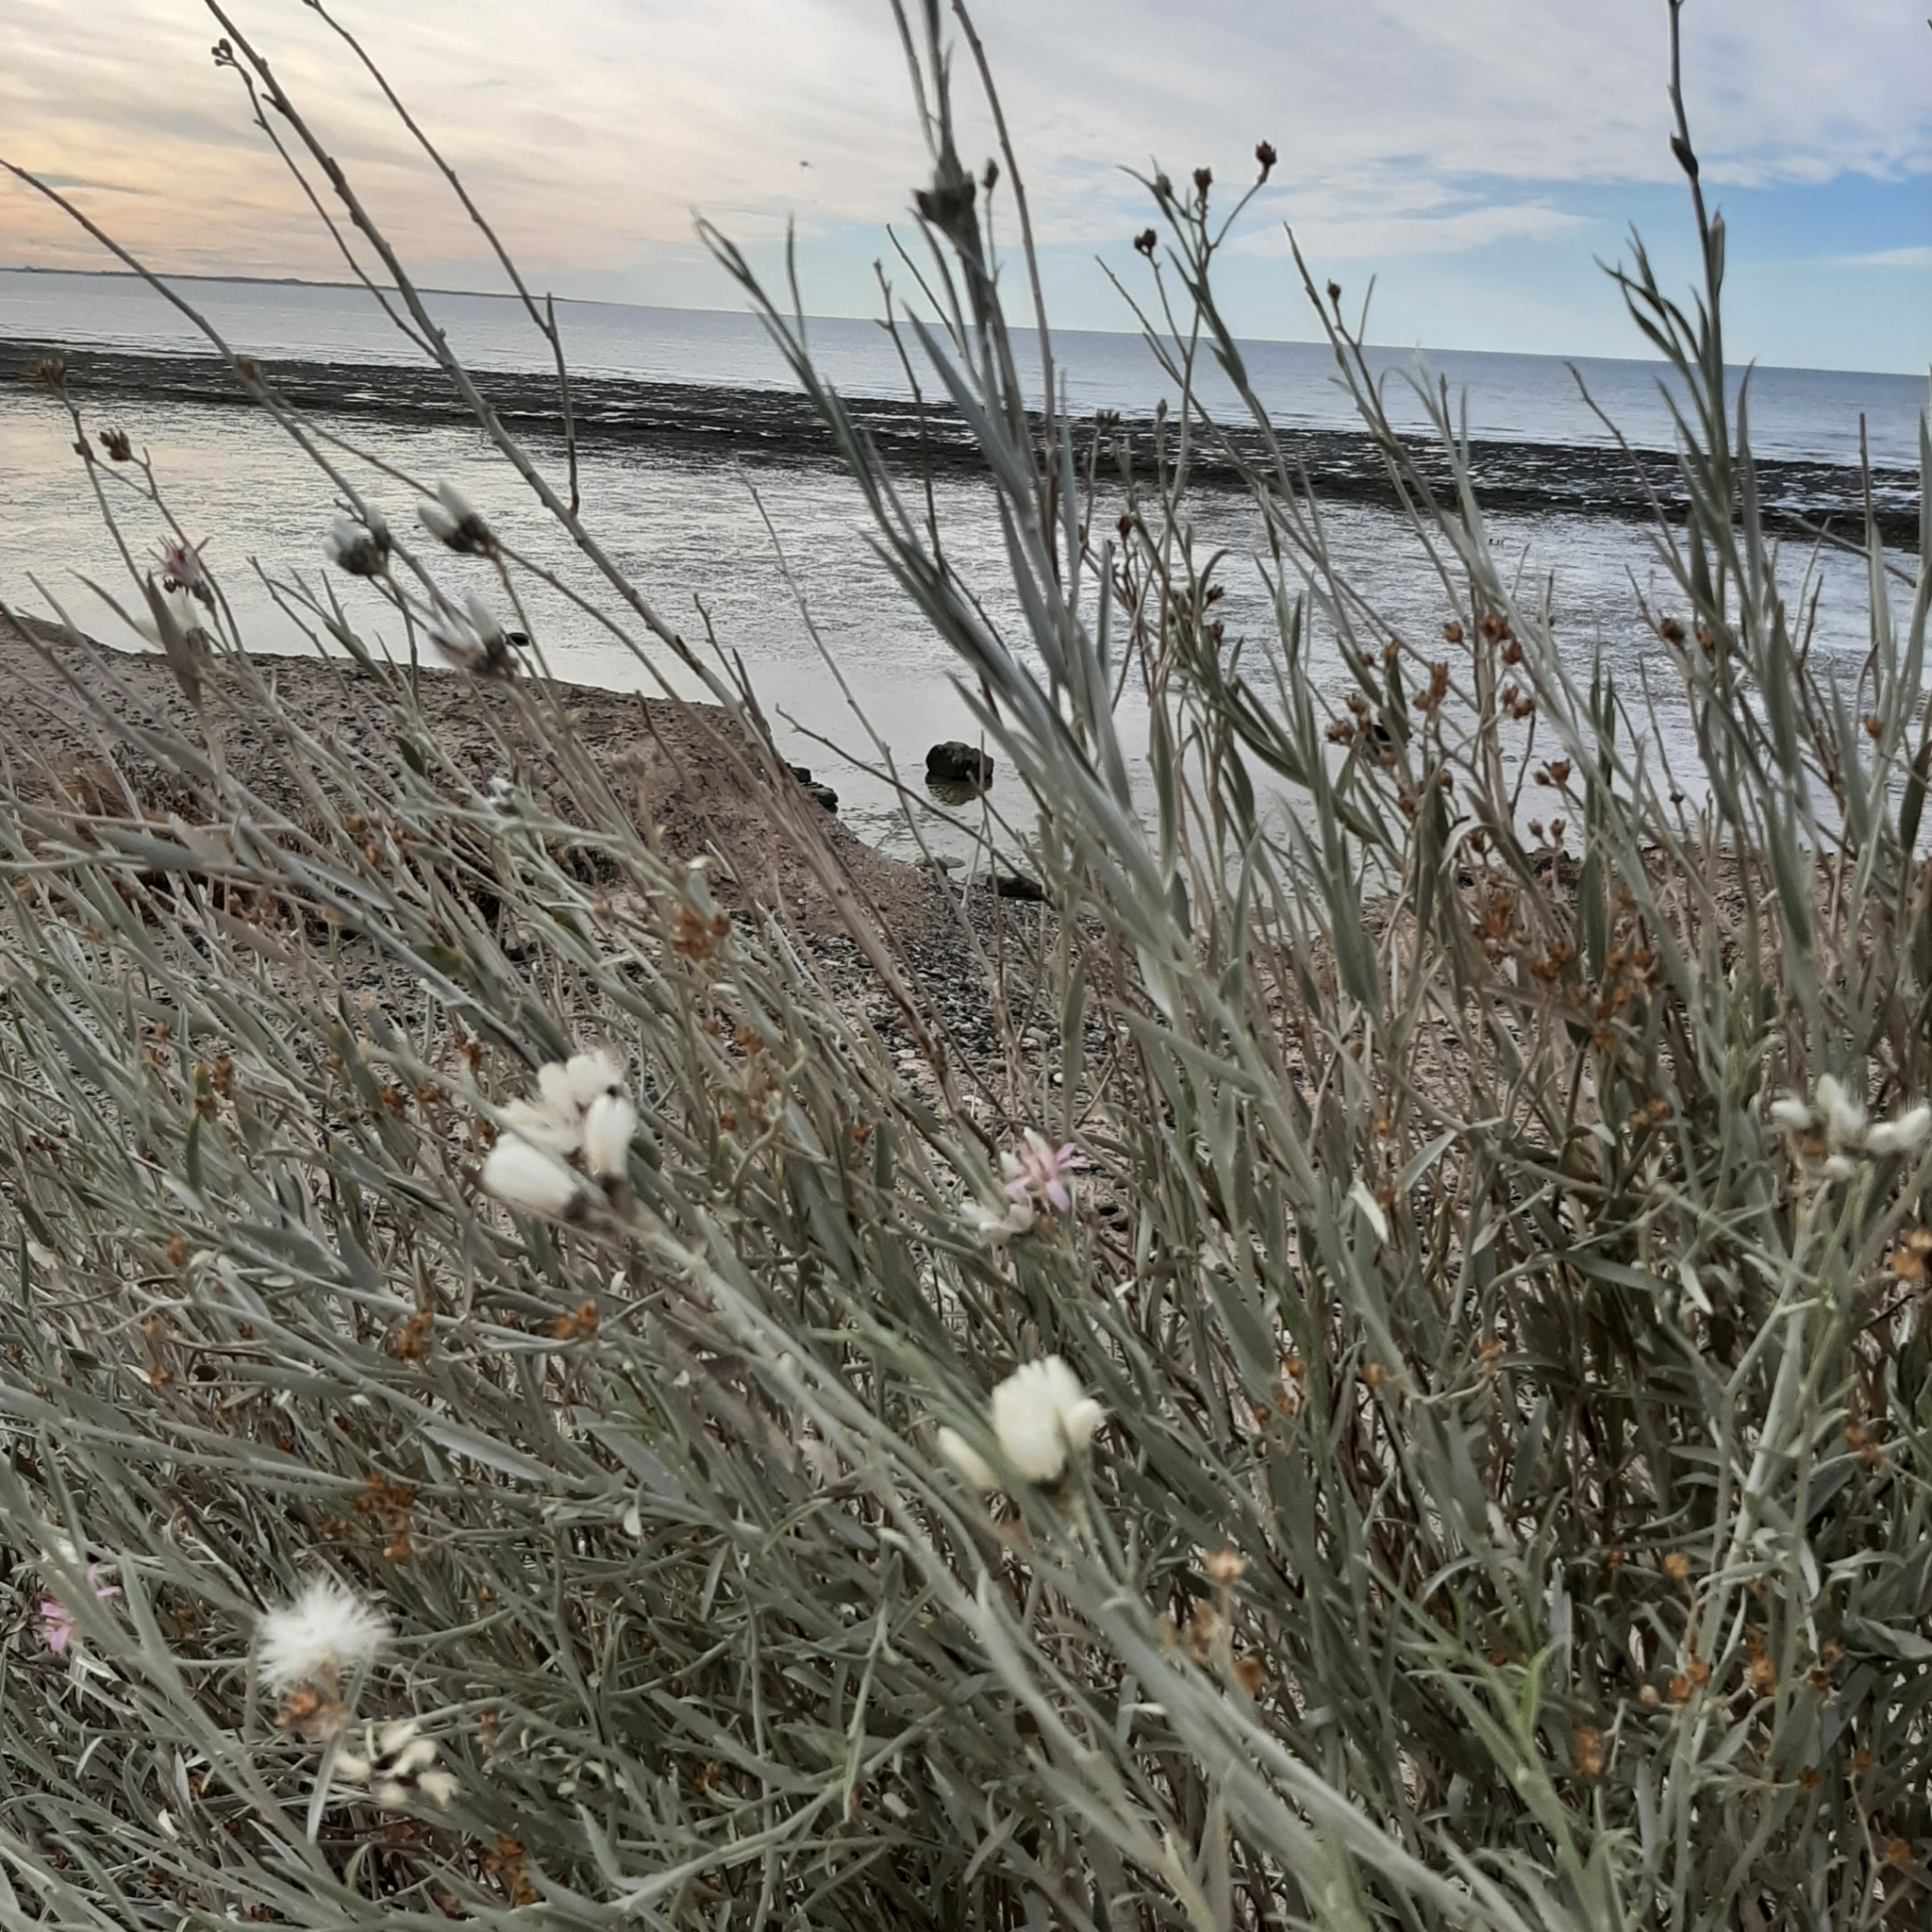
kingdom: Plantae
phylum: Tracheophyta
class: Magnoliopsida
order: Asterales
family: Asteraceae
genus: Hyalis
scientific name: Hyalis argentea
